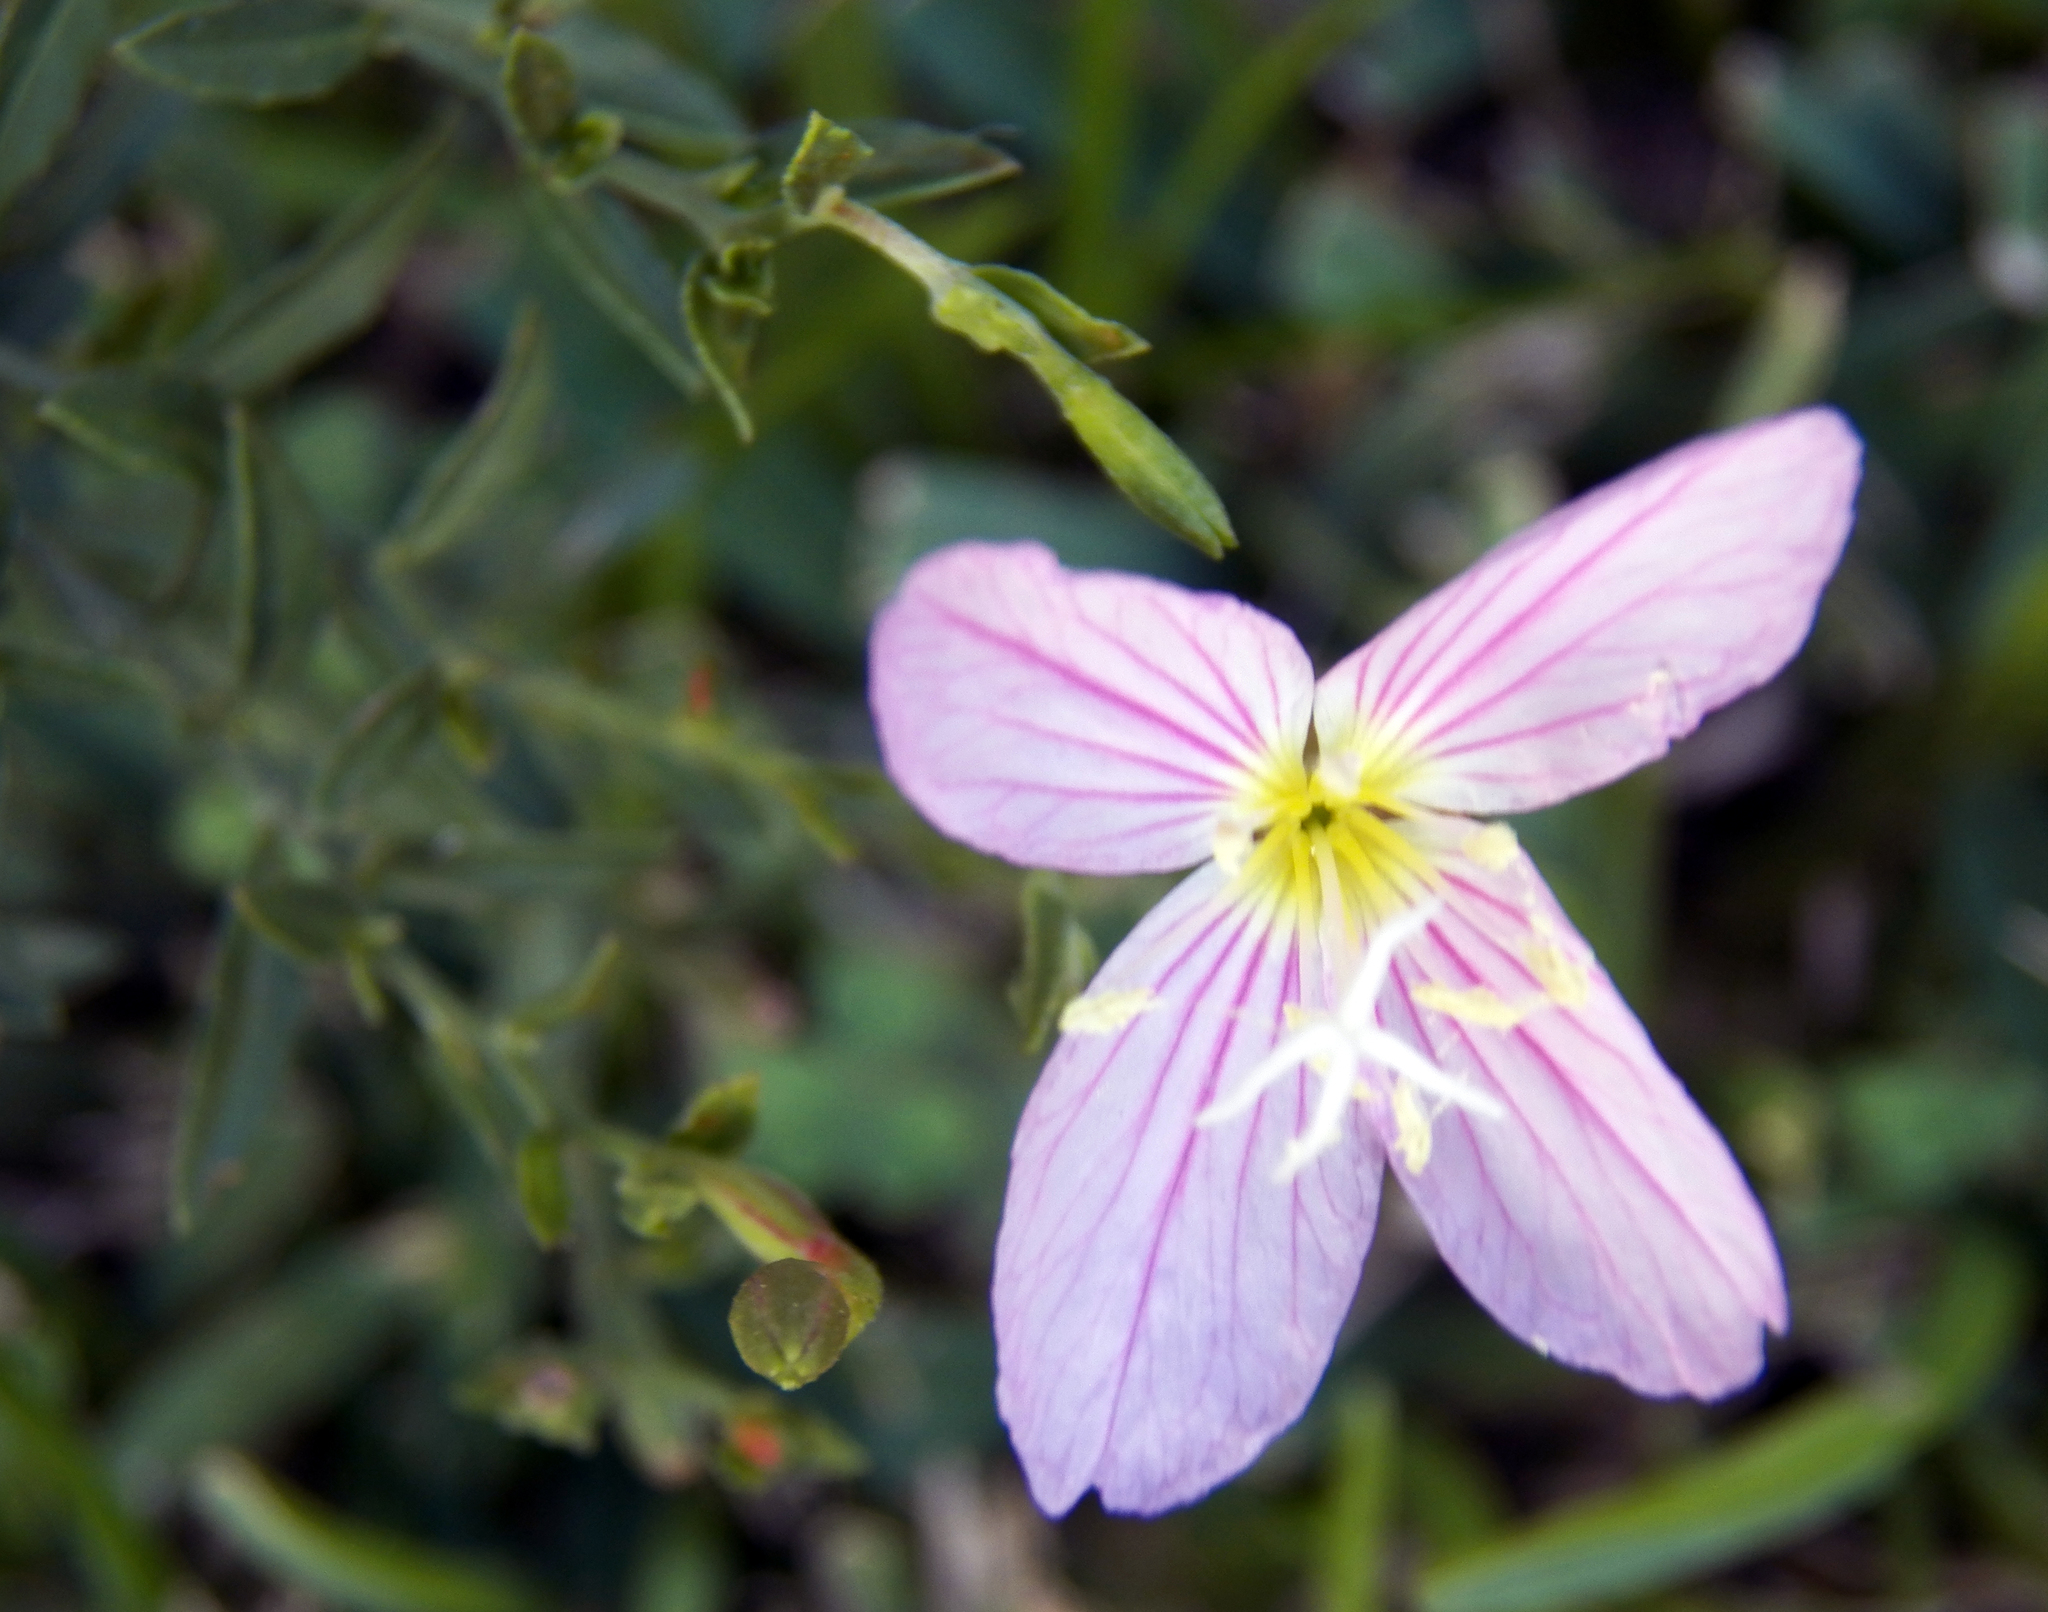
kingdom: Plantae
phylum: Tracheophyta
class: Magnoliopsida
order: Myrtales
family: Onagraceae
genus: Oenothera
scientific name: Oenothera speciosa
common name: White evening-primrose
